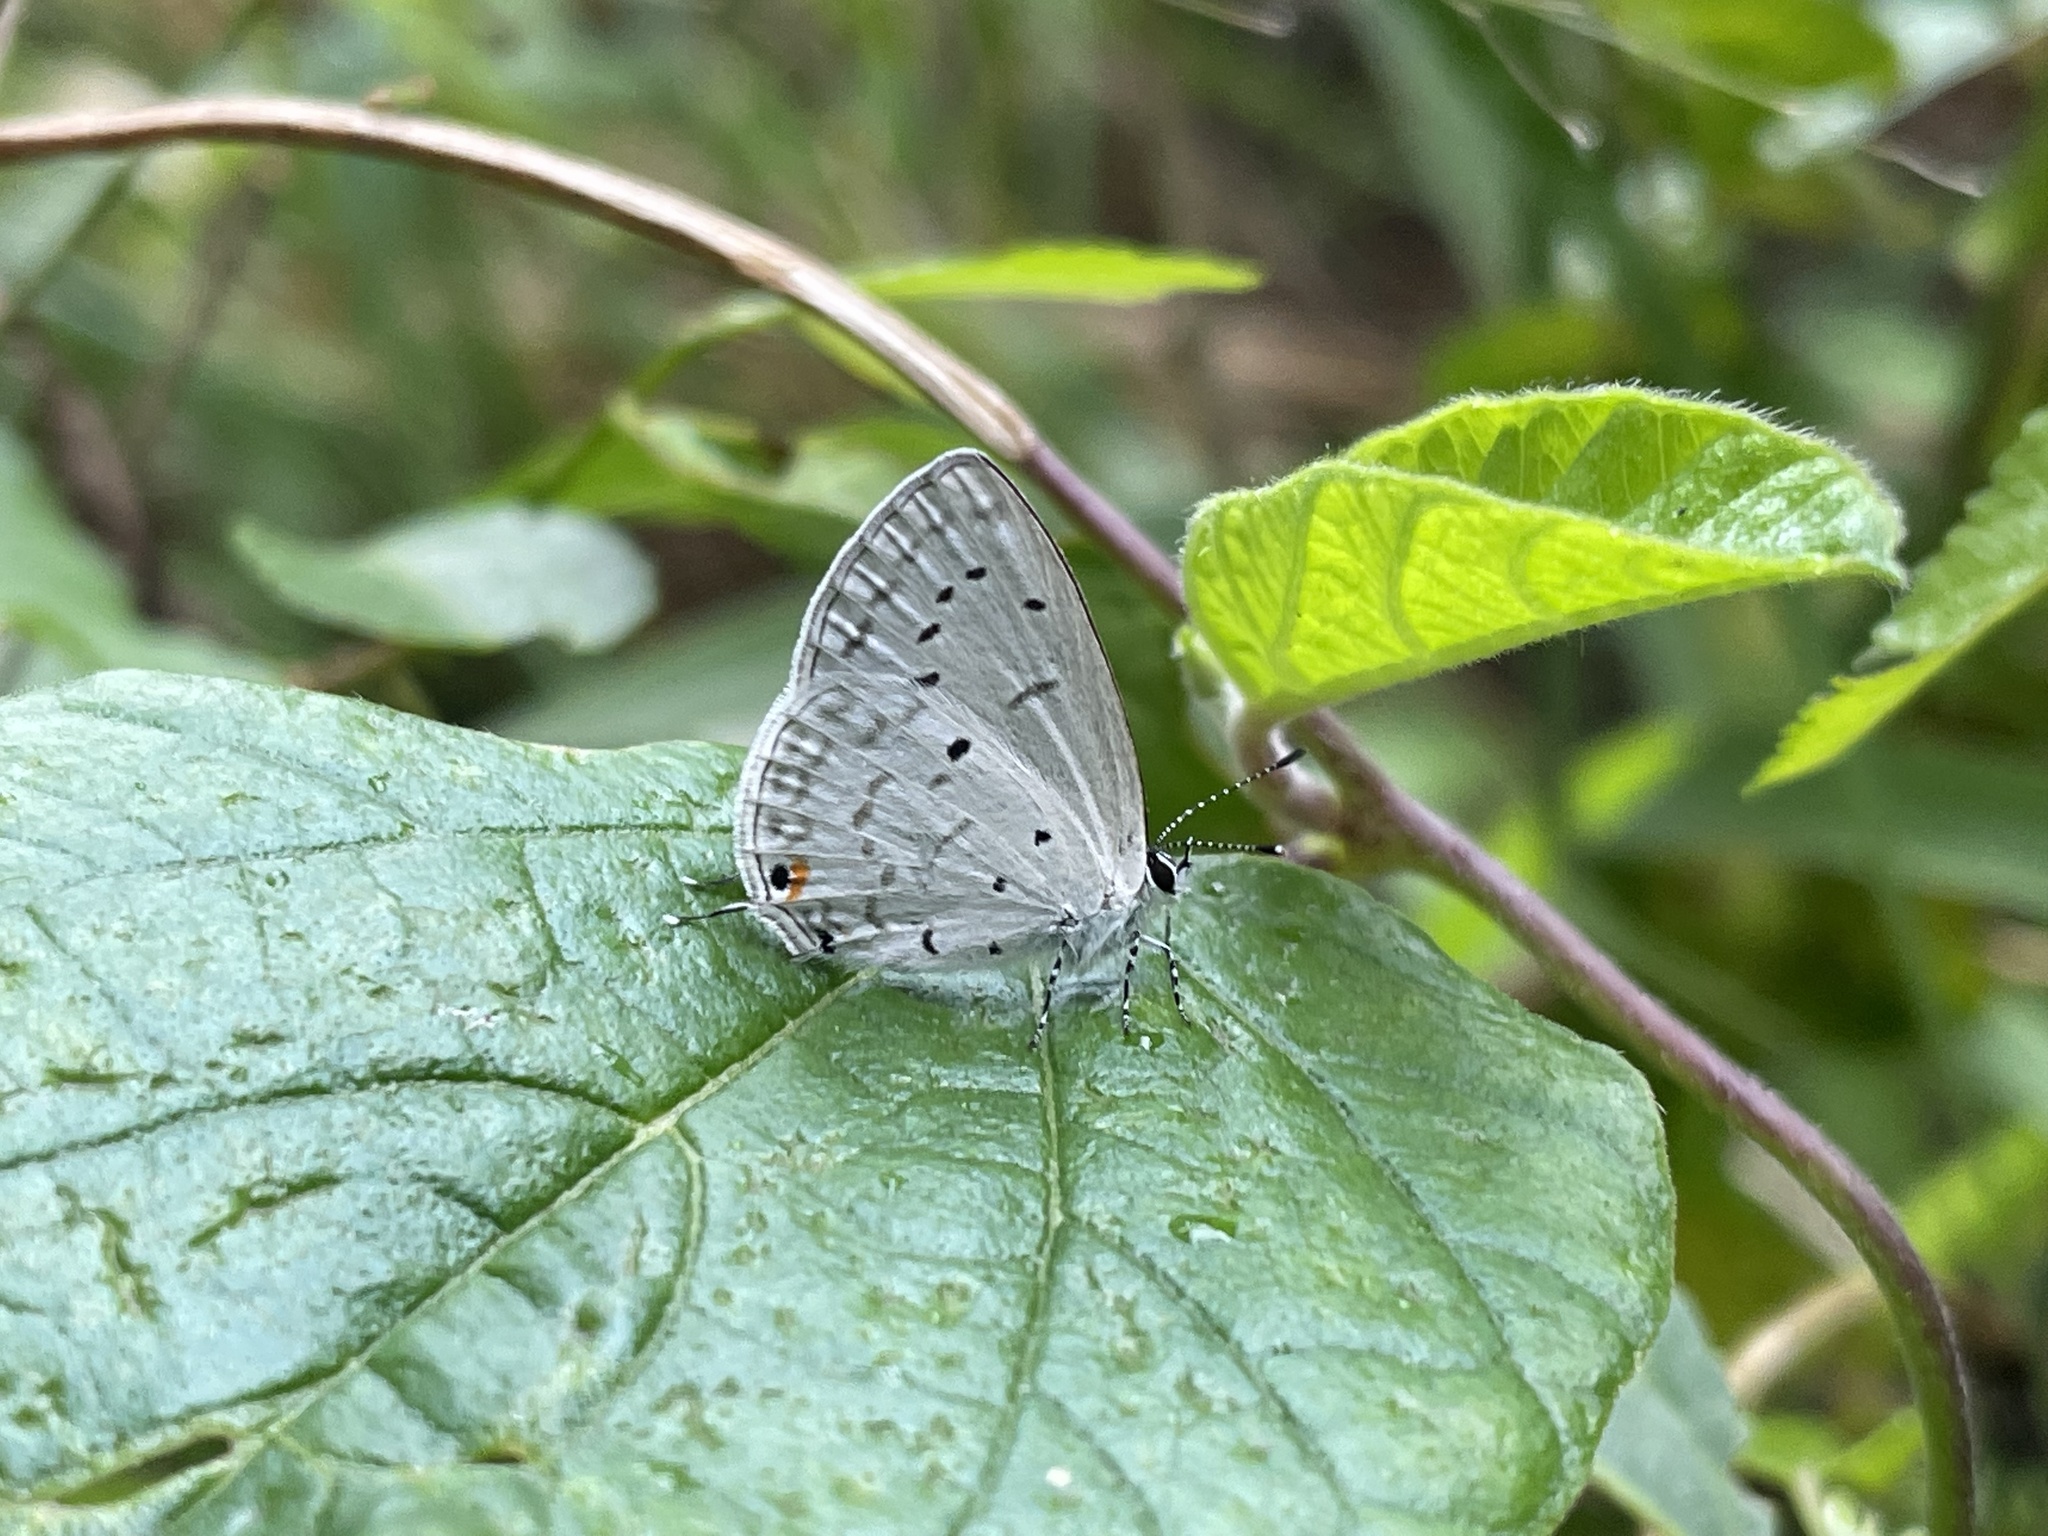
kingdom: Animalia
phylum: Arthropoda
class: Insecta
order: Lepidoptera
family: Lycaenidae
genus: Eicochrysops
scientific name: Eicochrysops hippocrates
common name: White-tipped blue
